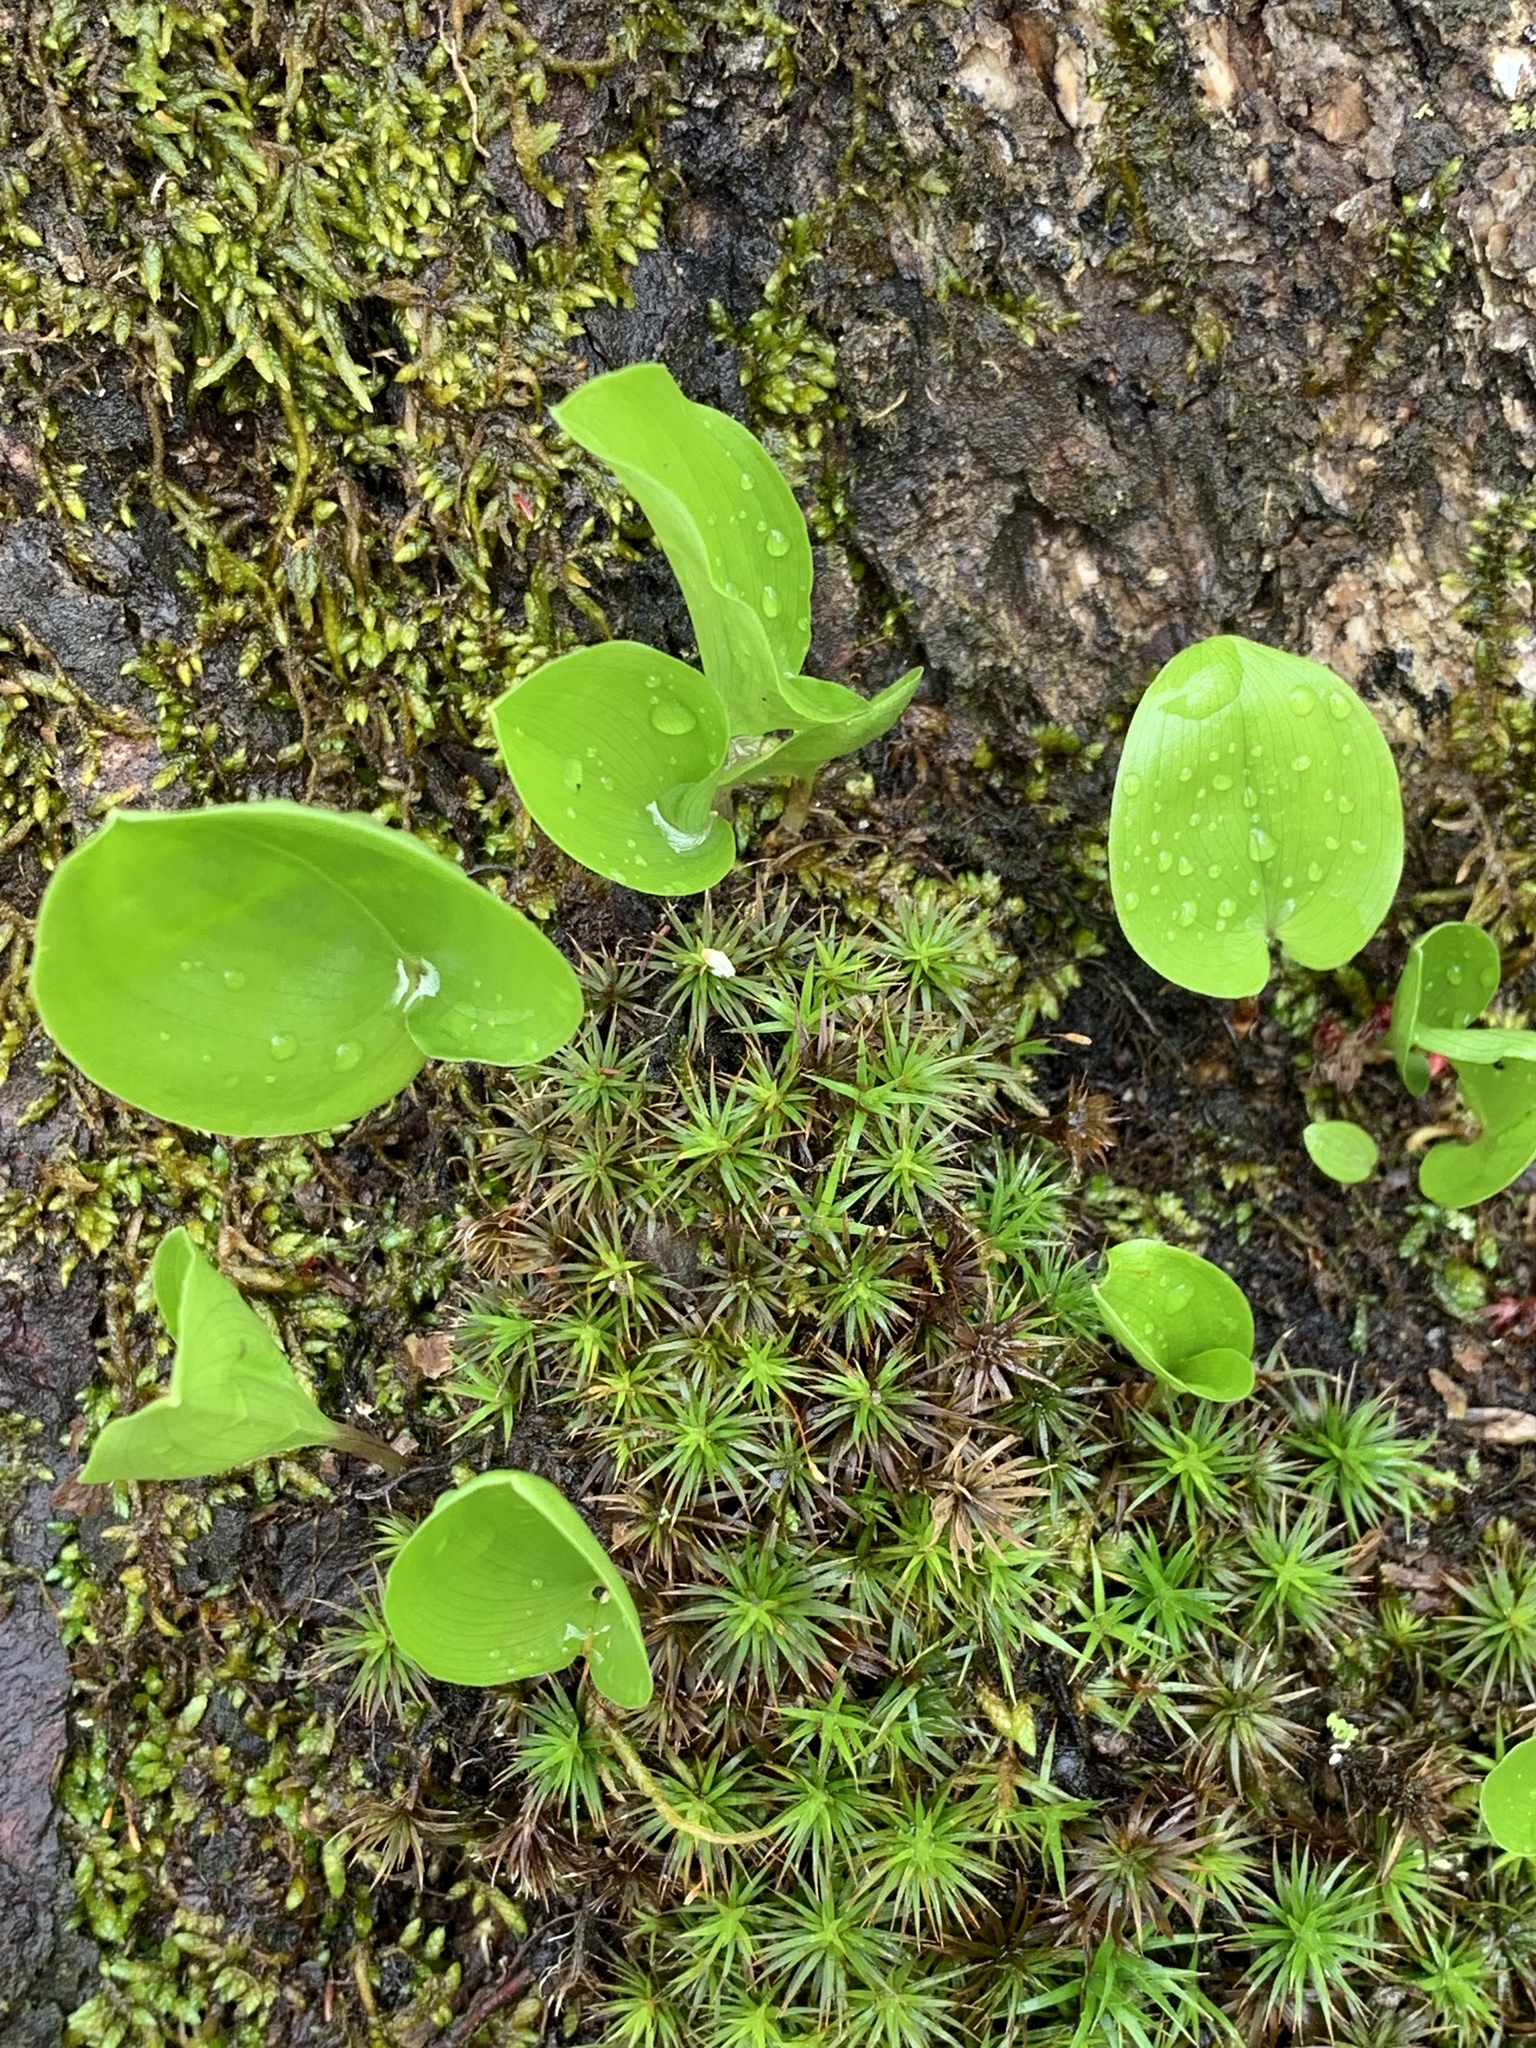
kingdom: Plantae
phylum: Tracheophyta
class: Liliopsida
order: Asparagales
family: Asparagaceae
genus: Maianthemum
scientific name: Maianthemum canadense
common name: False lily-of-the-valley
